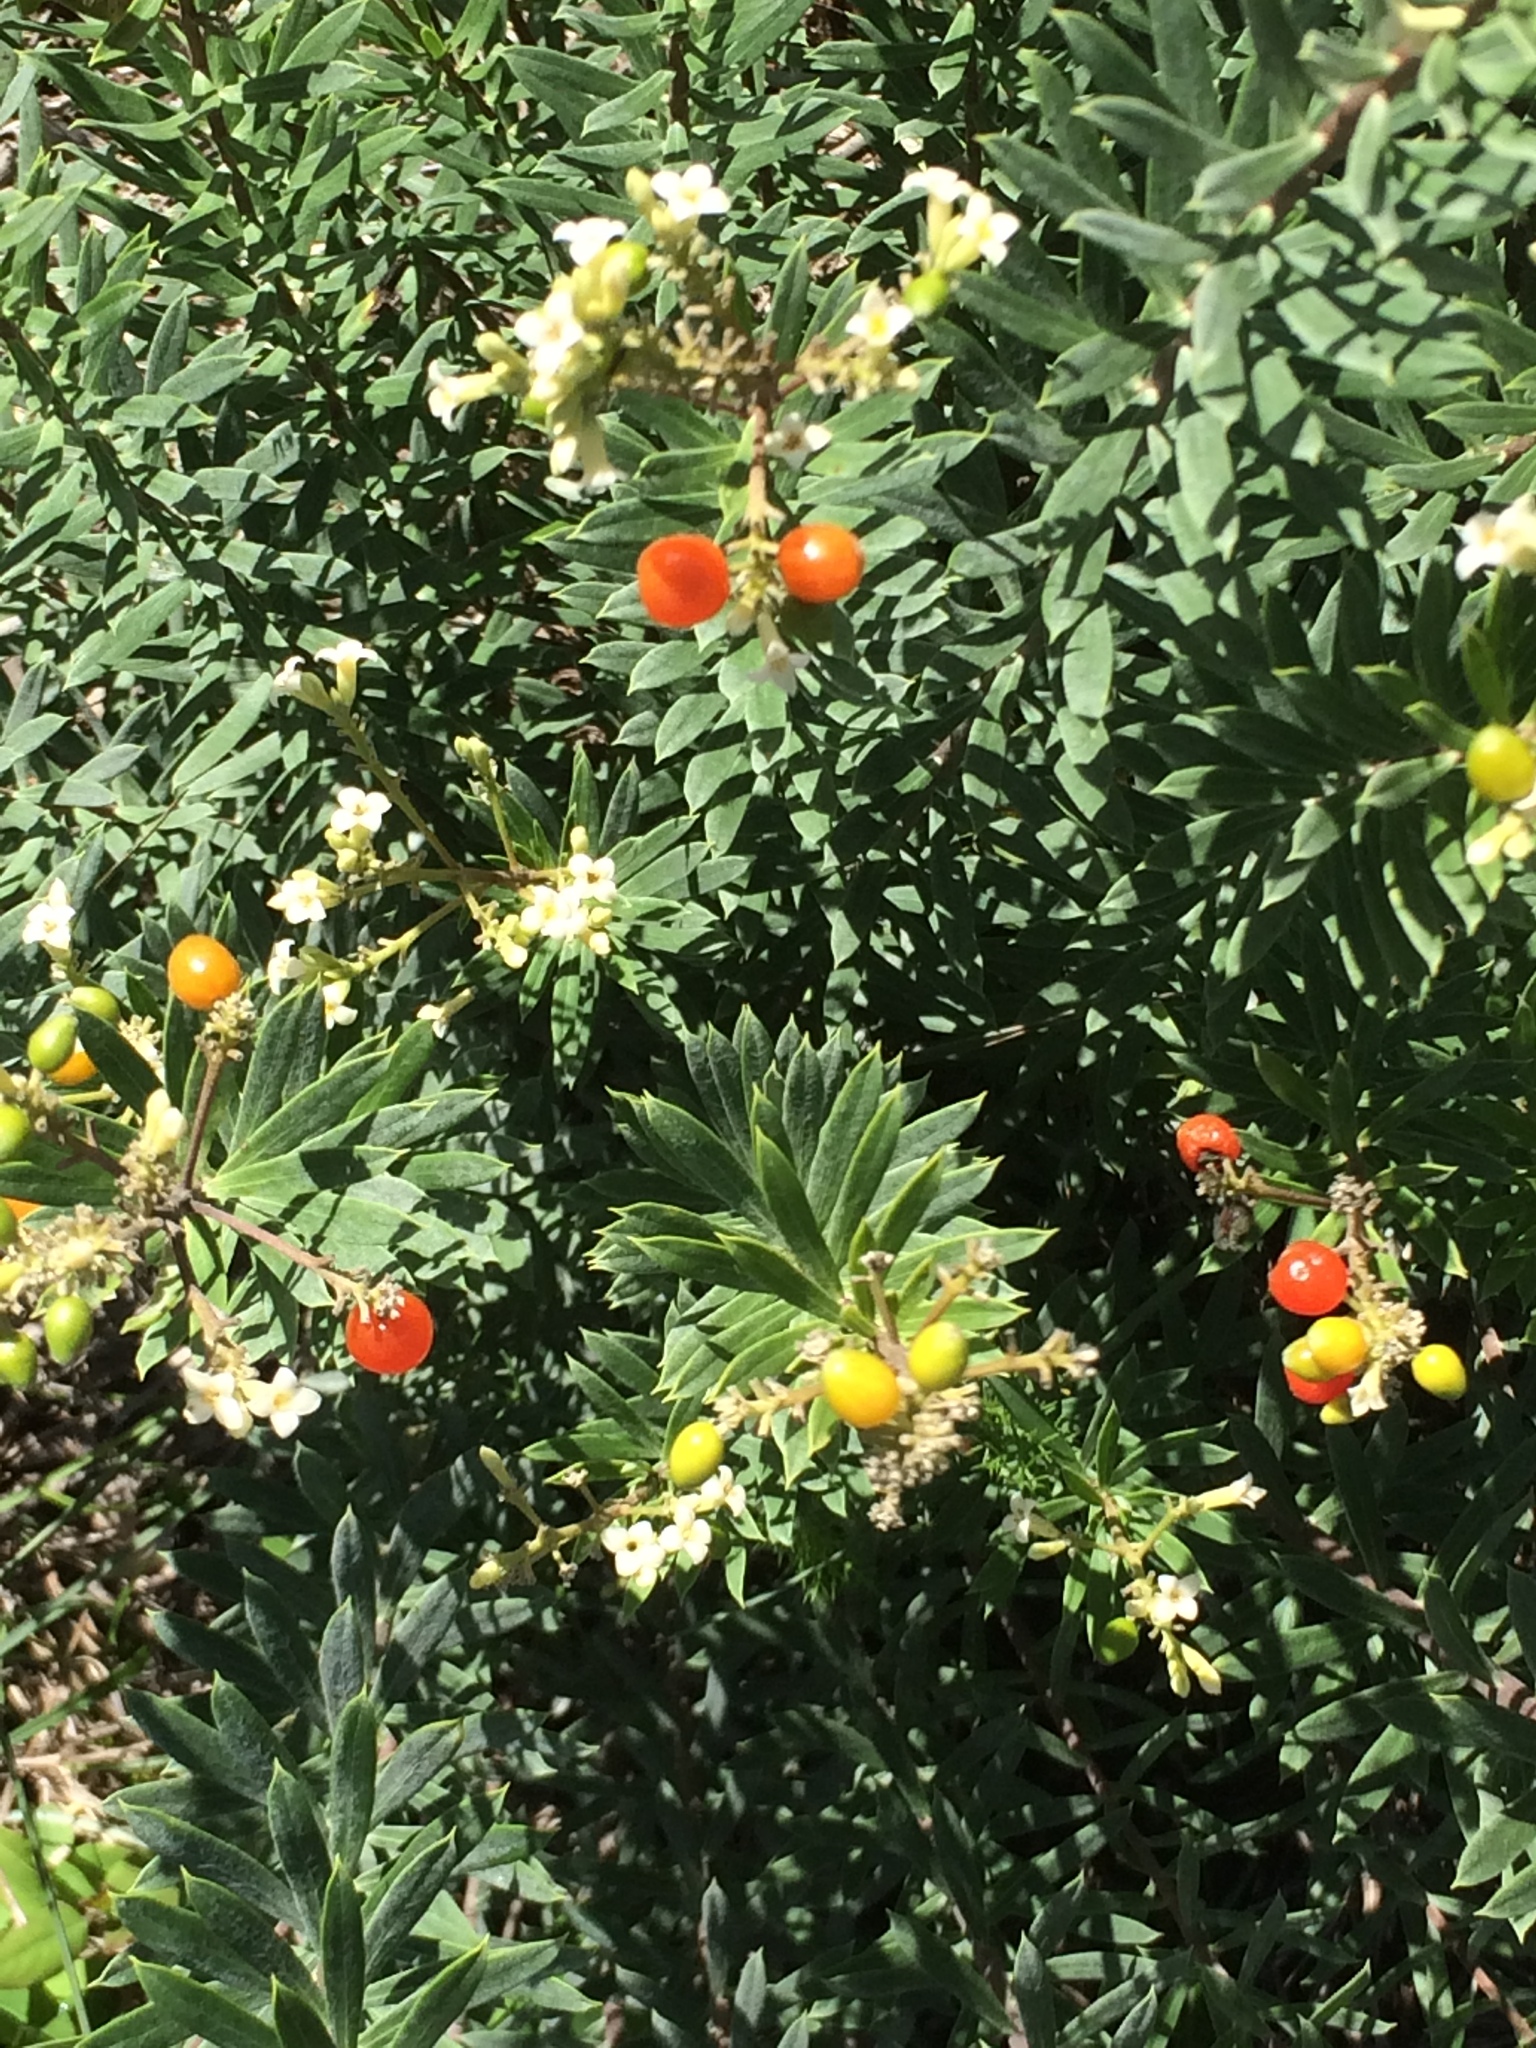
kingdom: Plantae
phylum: Tracheophyta
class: Magnoliopsida
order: Malvales
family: Thymelaeaceae
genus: Daphne
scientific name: Daphne gnidium
